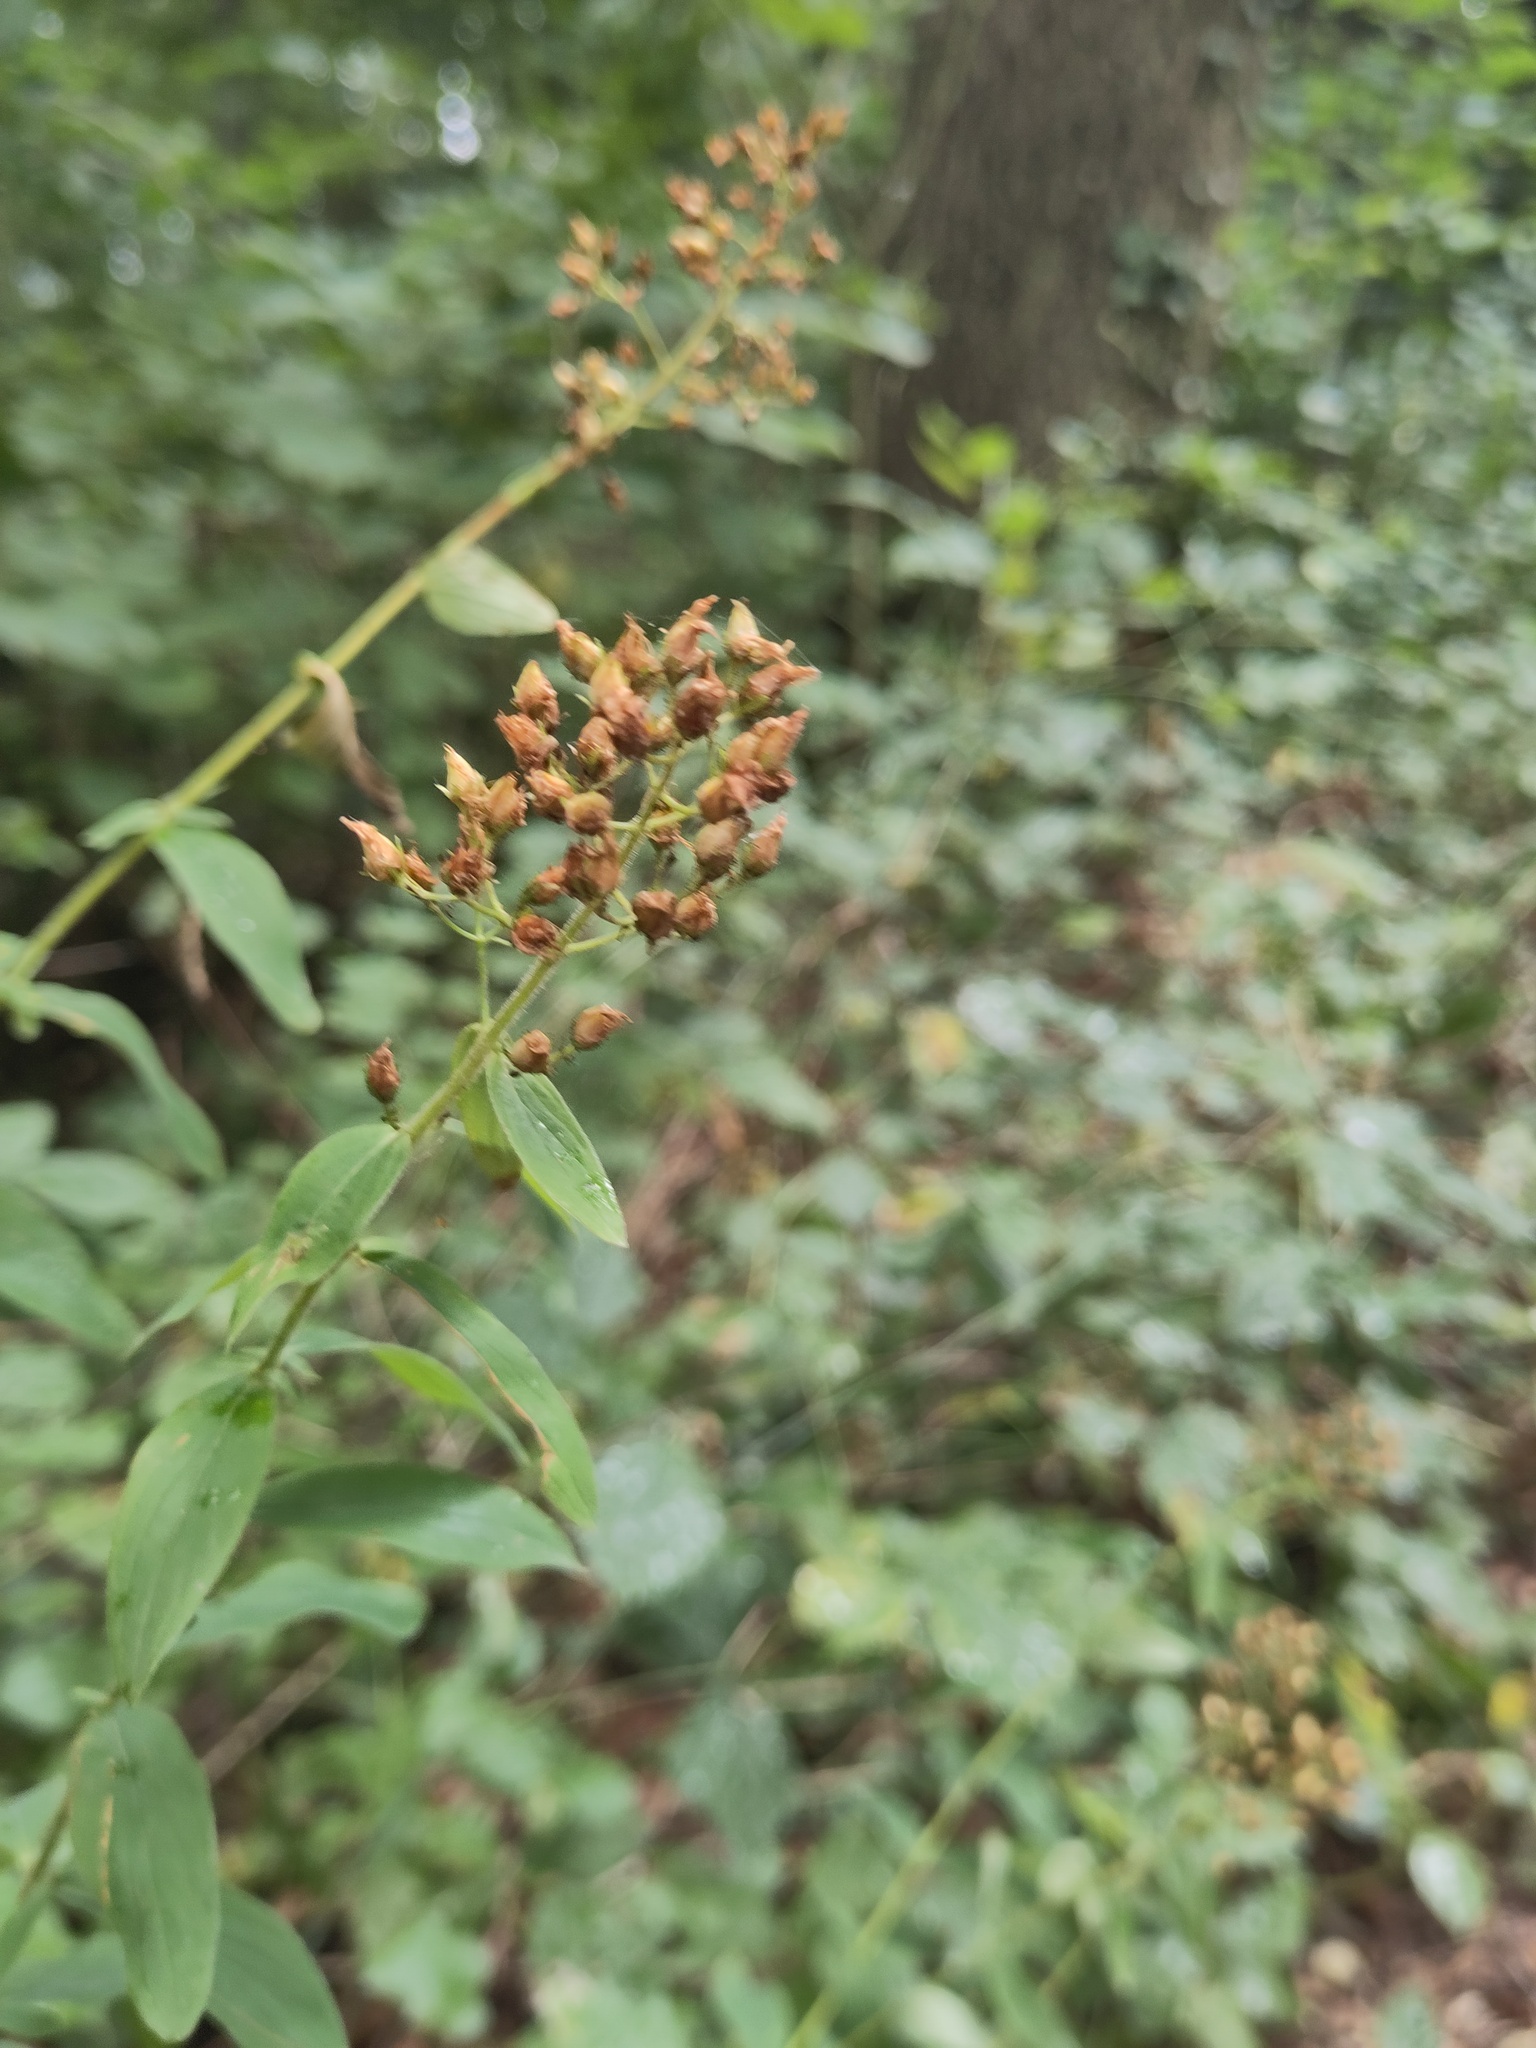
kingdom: Plantae
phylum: Tracheophyta
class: Magnoliopsida
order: Malpighiales
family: Hypericaceae
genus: Hypericum
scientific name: Hypericum hirsutum
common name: Hairy st. john's-wort
